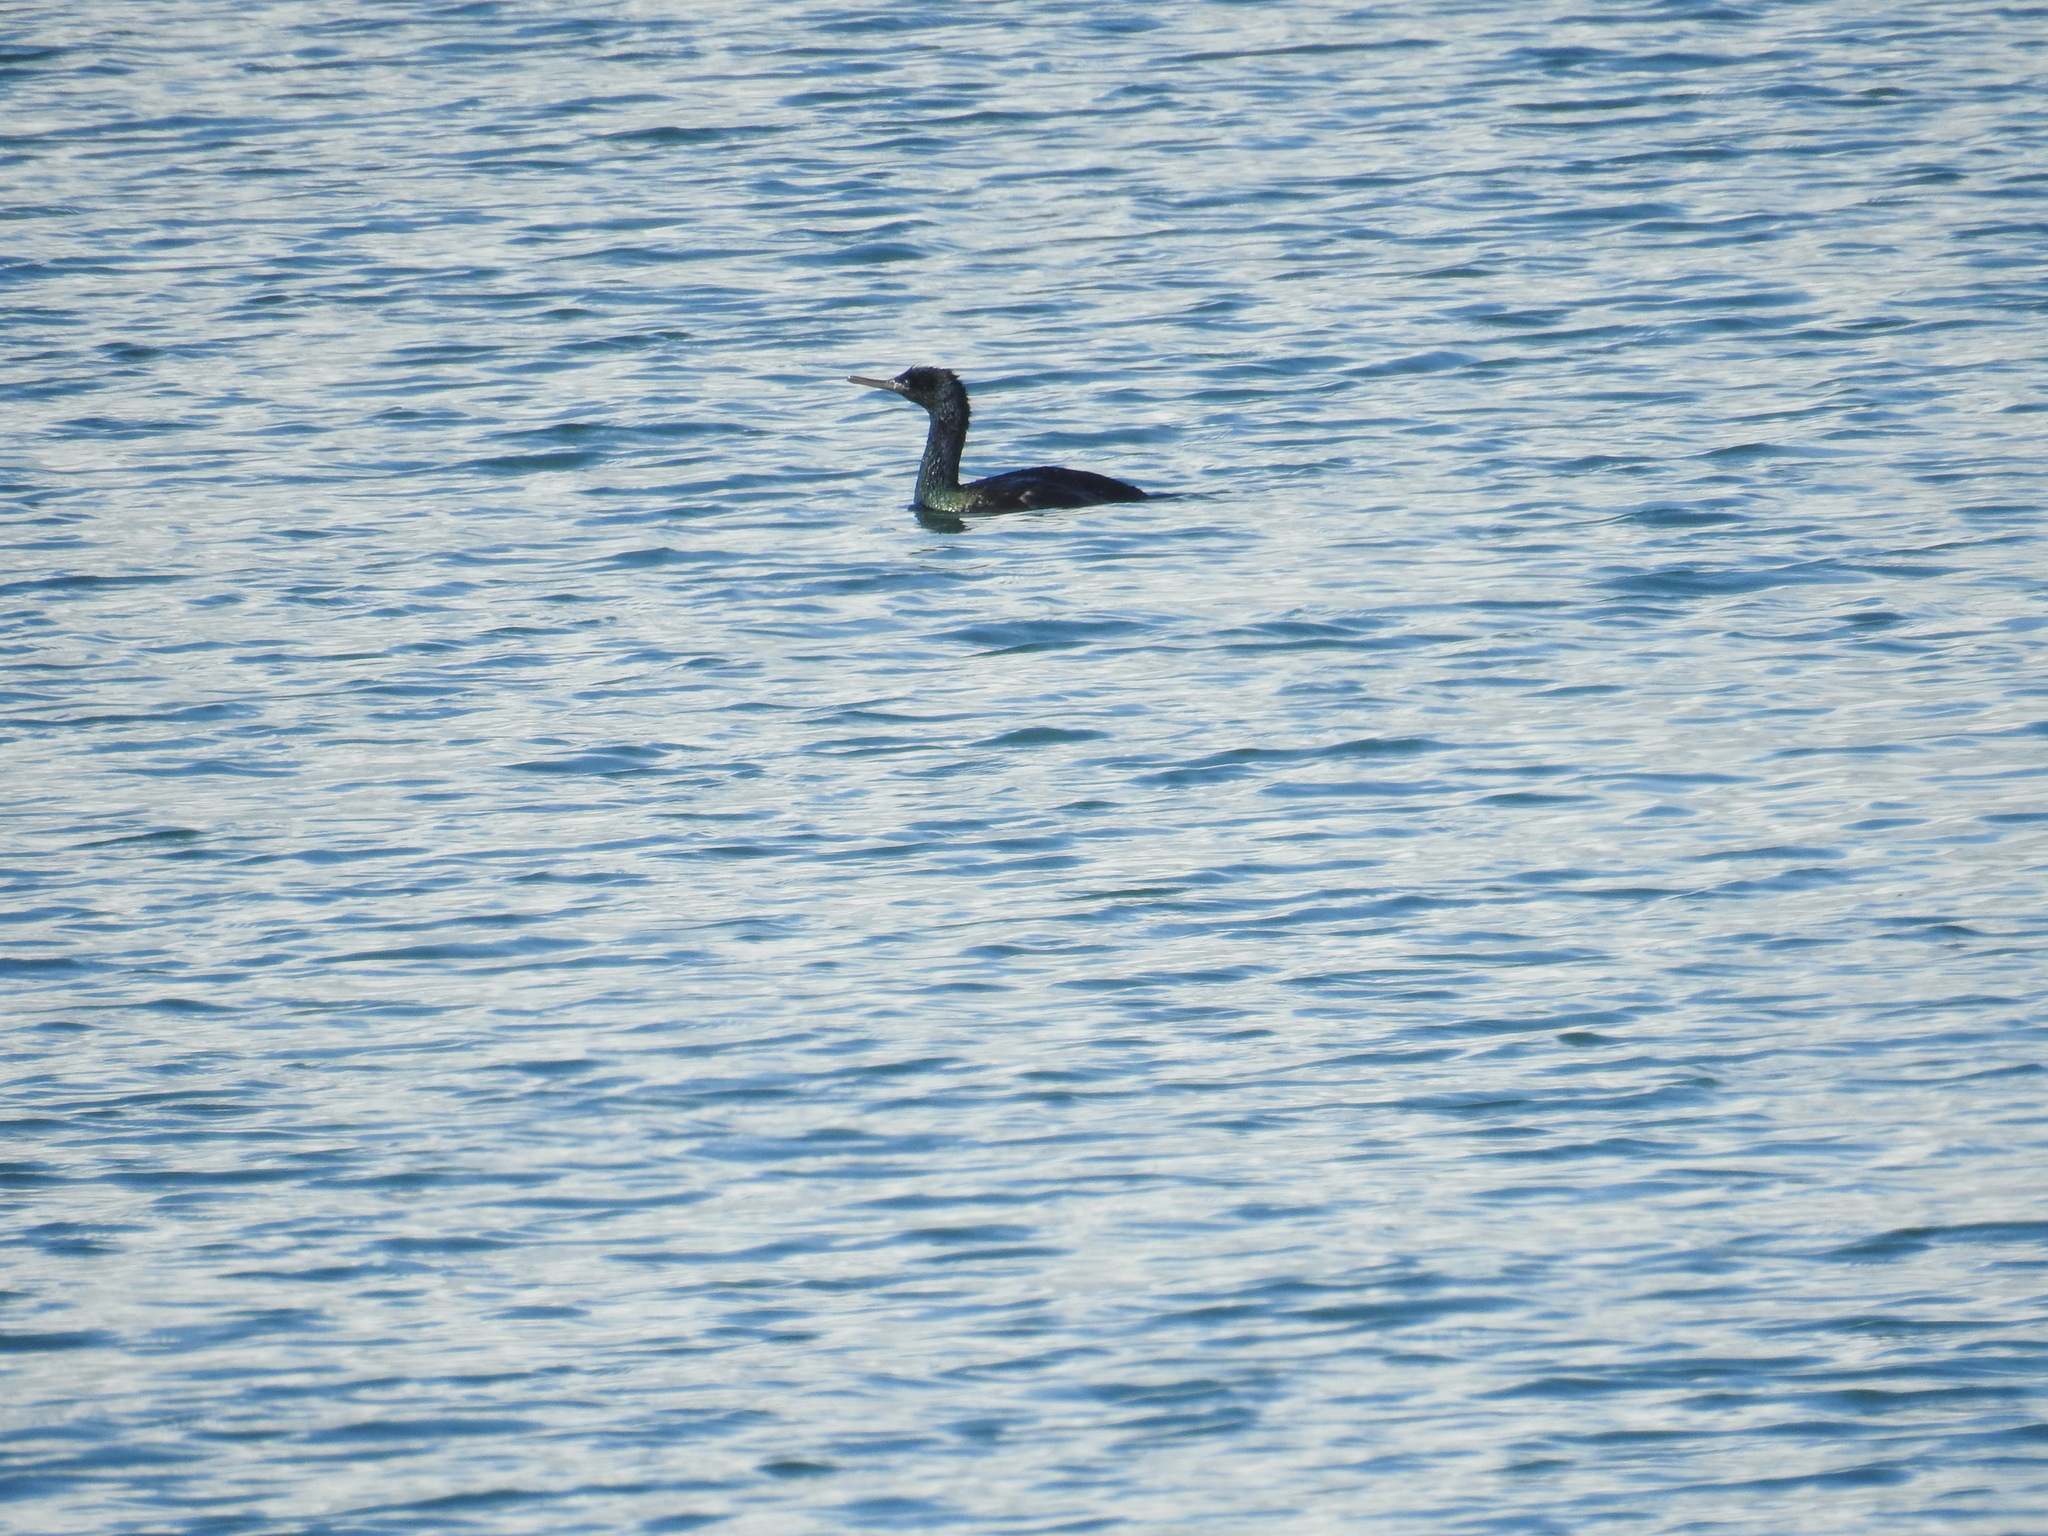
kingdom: Animalia
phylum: Chordata
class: Aves
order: Suliformes
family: Phalacrocoracidae
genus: Phalacrocorax
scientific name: Phalacrocorax pelagicus
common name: Pelagic cormorant
